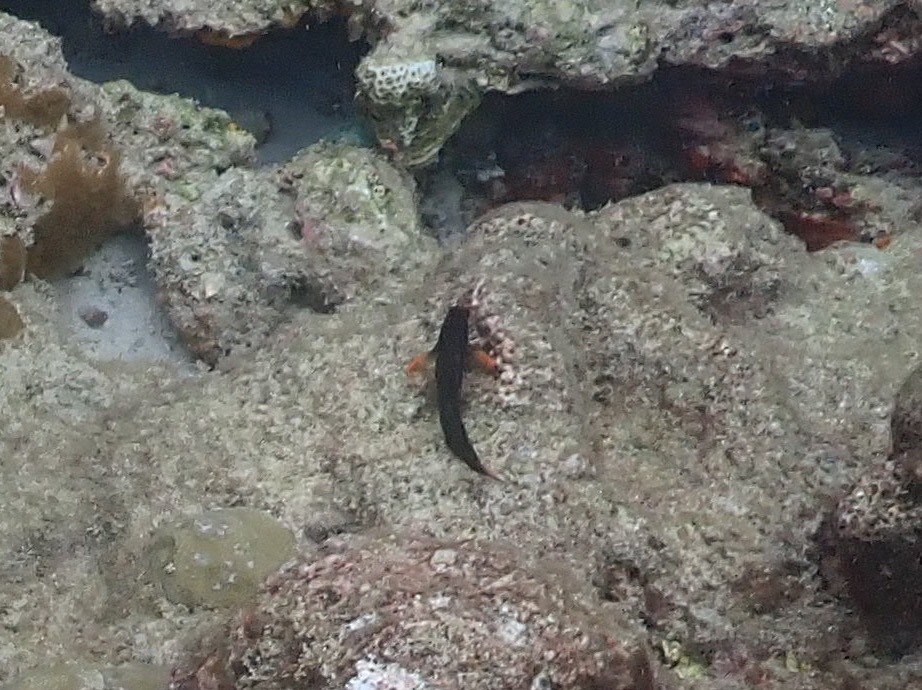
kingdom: Animalia
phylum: Chordata
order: Perciformes
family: Blenniidae
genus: Ophioblennius
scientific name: Ophioblennius macclurei
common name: Redlip blenny
